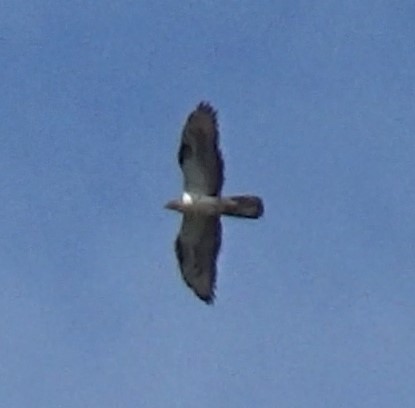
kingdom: Animalia
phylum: Chordata
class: Aves
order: Accipitriformes
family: Accipitridae
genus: Pernis
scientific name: Pernis apivorus
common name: European honey buzzard
